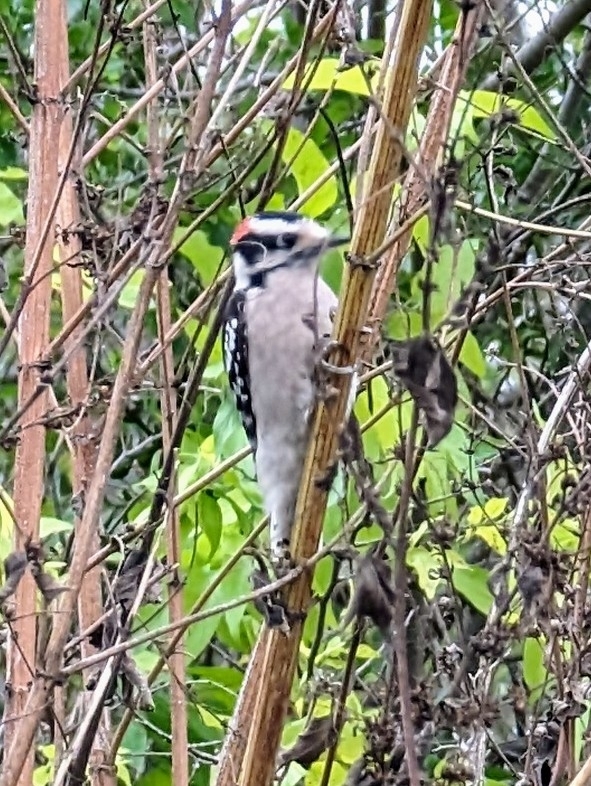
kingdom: Animalia
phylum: Chordata
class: Aves
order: Piciformes
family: Picidae
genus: Dryobates
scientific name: Dryobates pubescens
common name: Downy woodpecker
